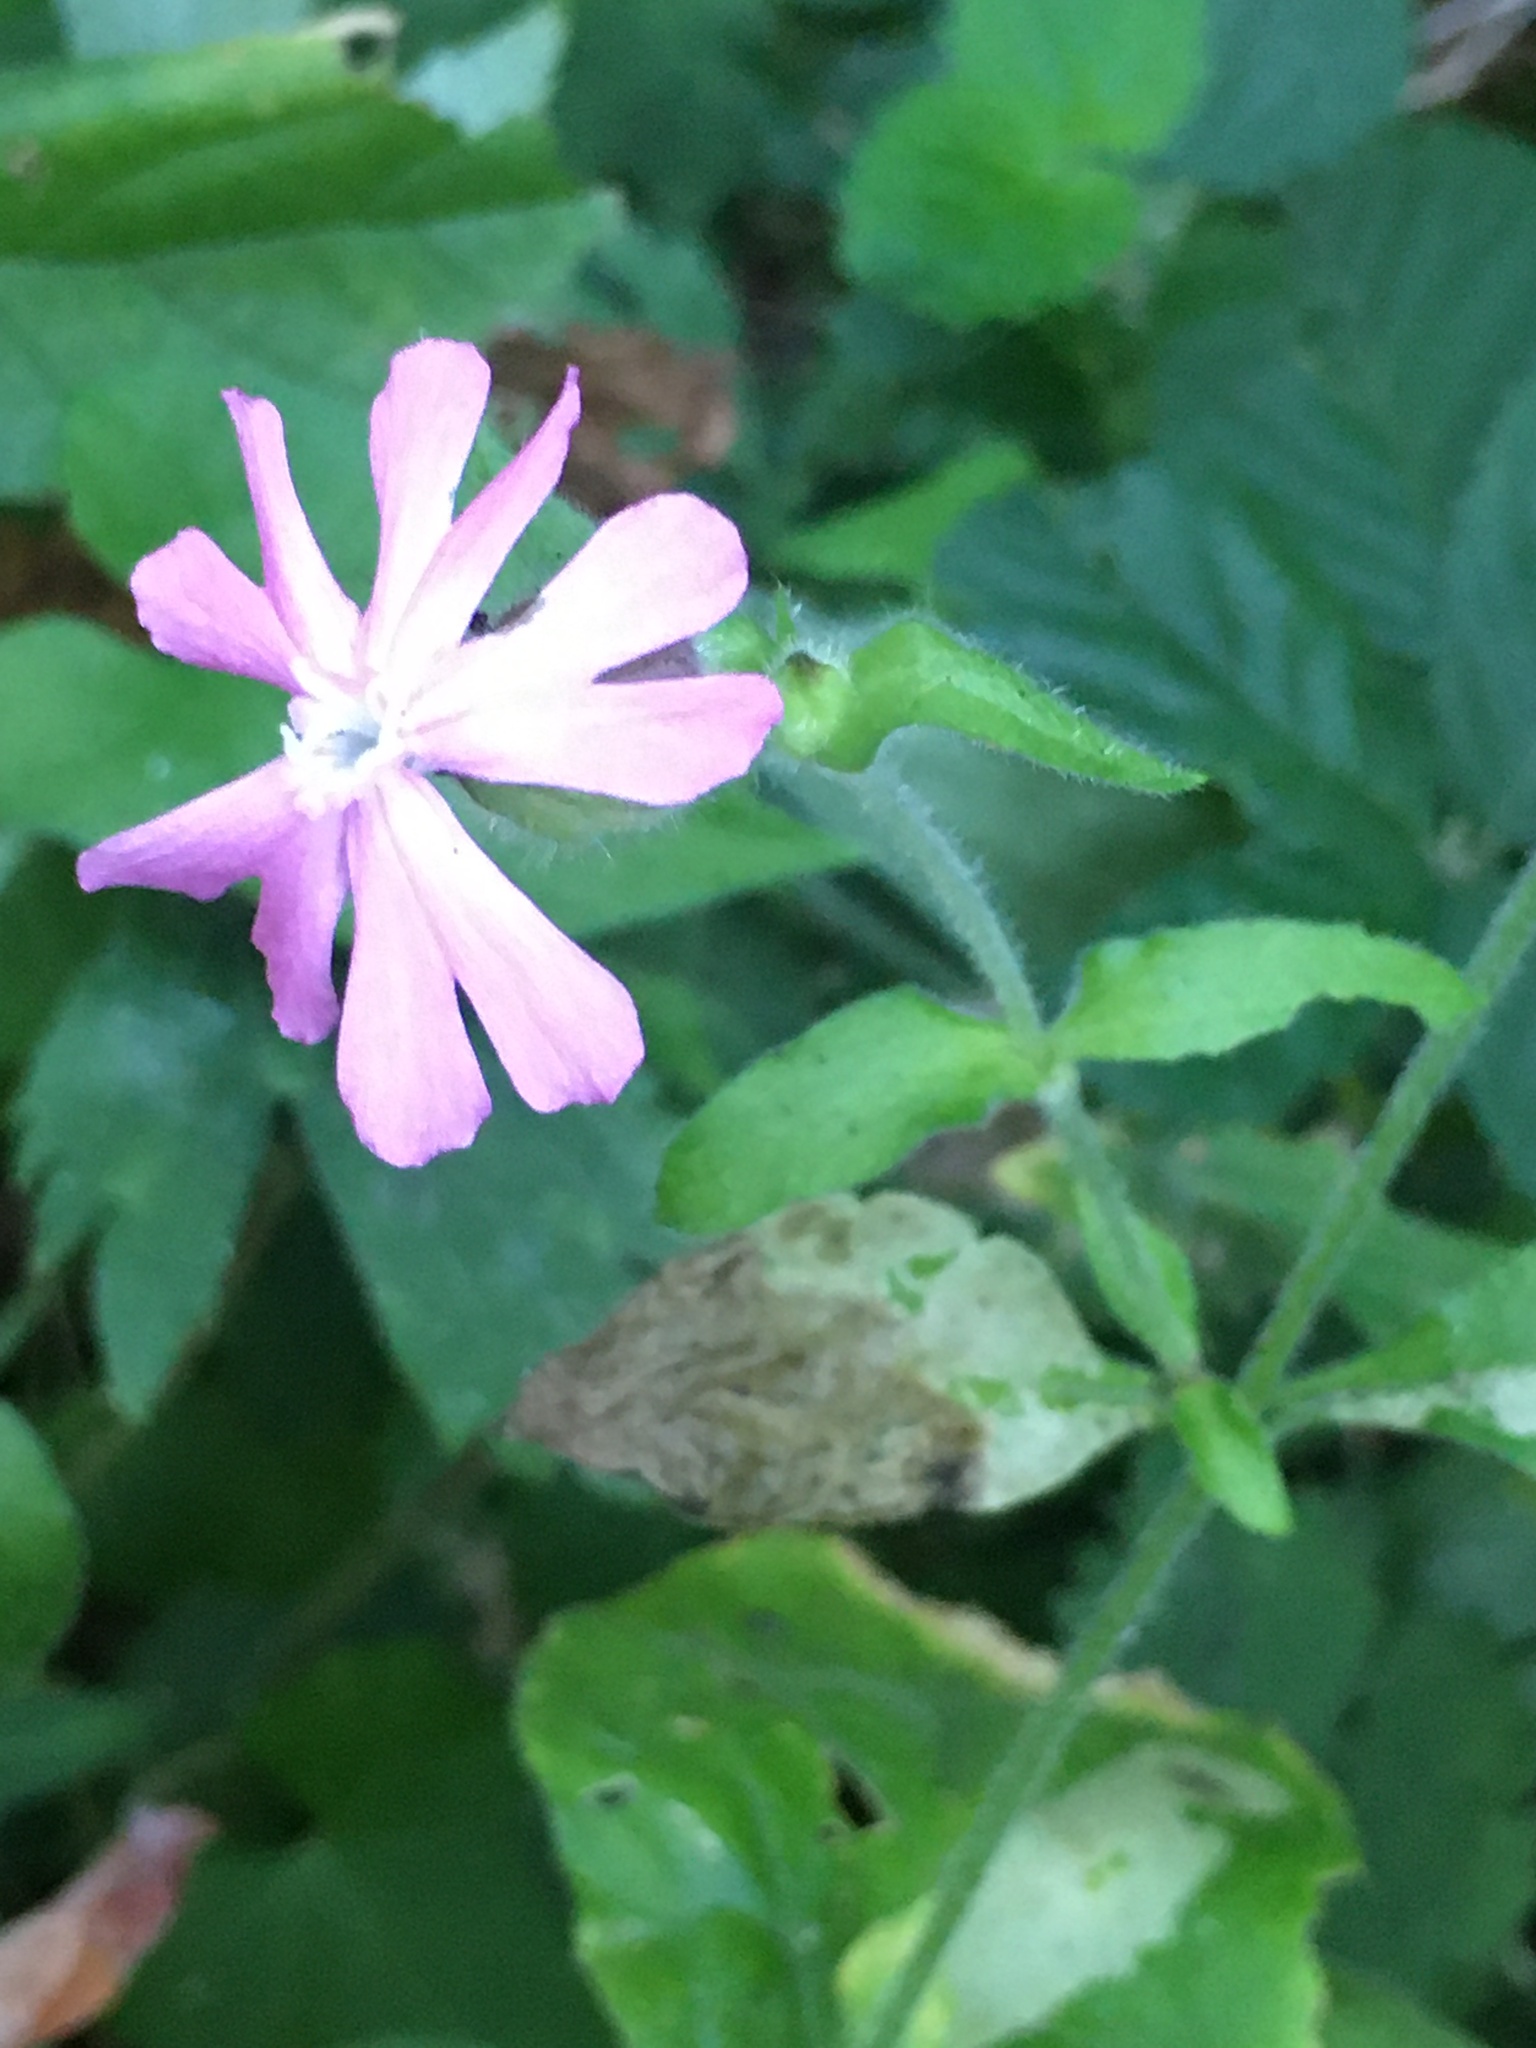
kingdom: Plantae
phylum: Tracheophyta
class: Magnoliopsida
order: Caryophyllales
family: Caryophyllaceae
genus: Silene
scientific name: Silene dioica
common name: Red campion
